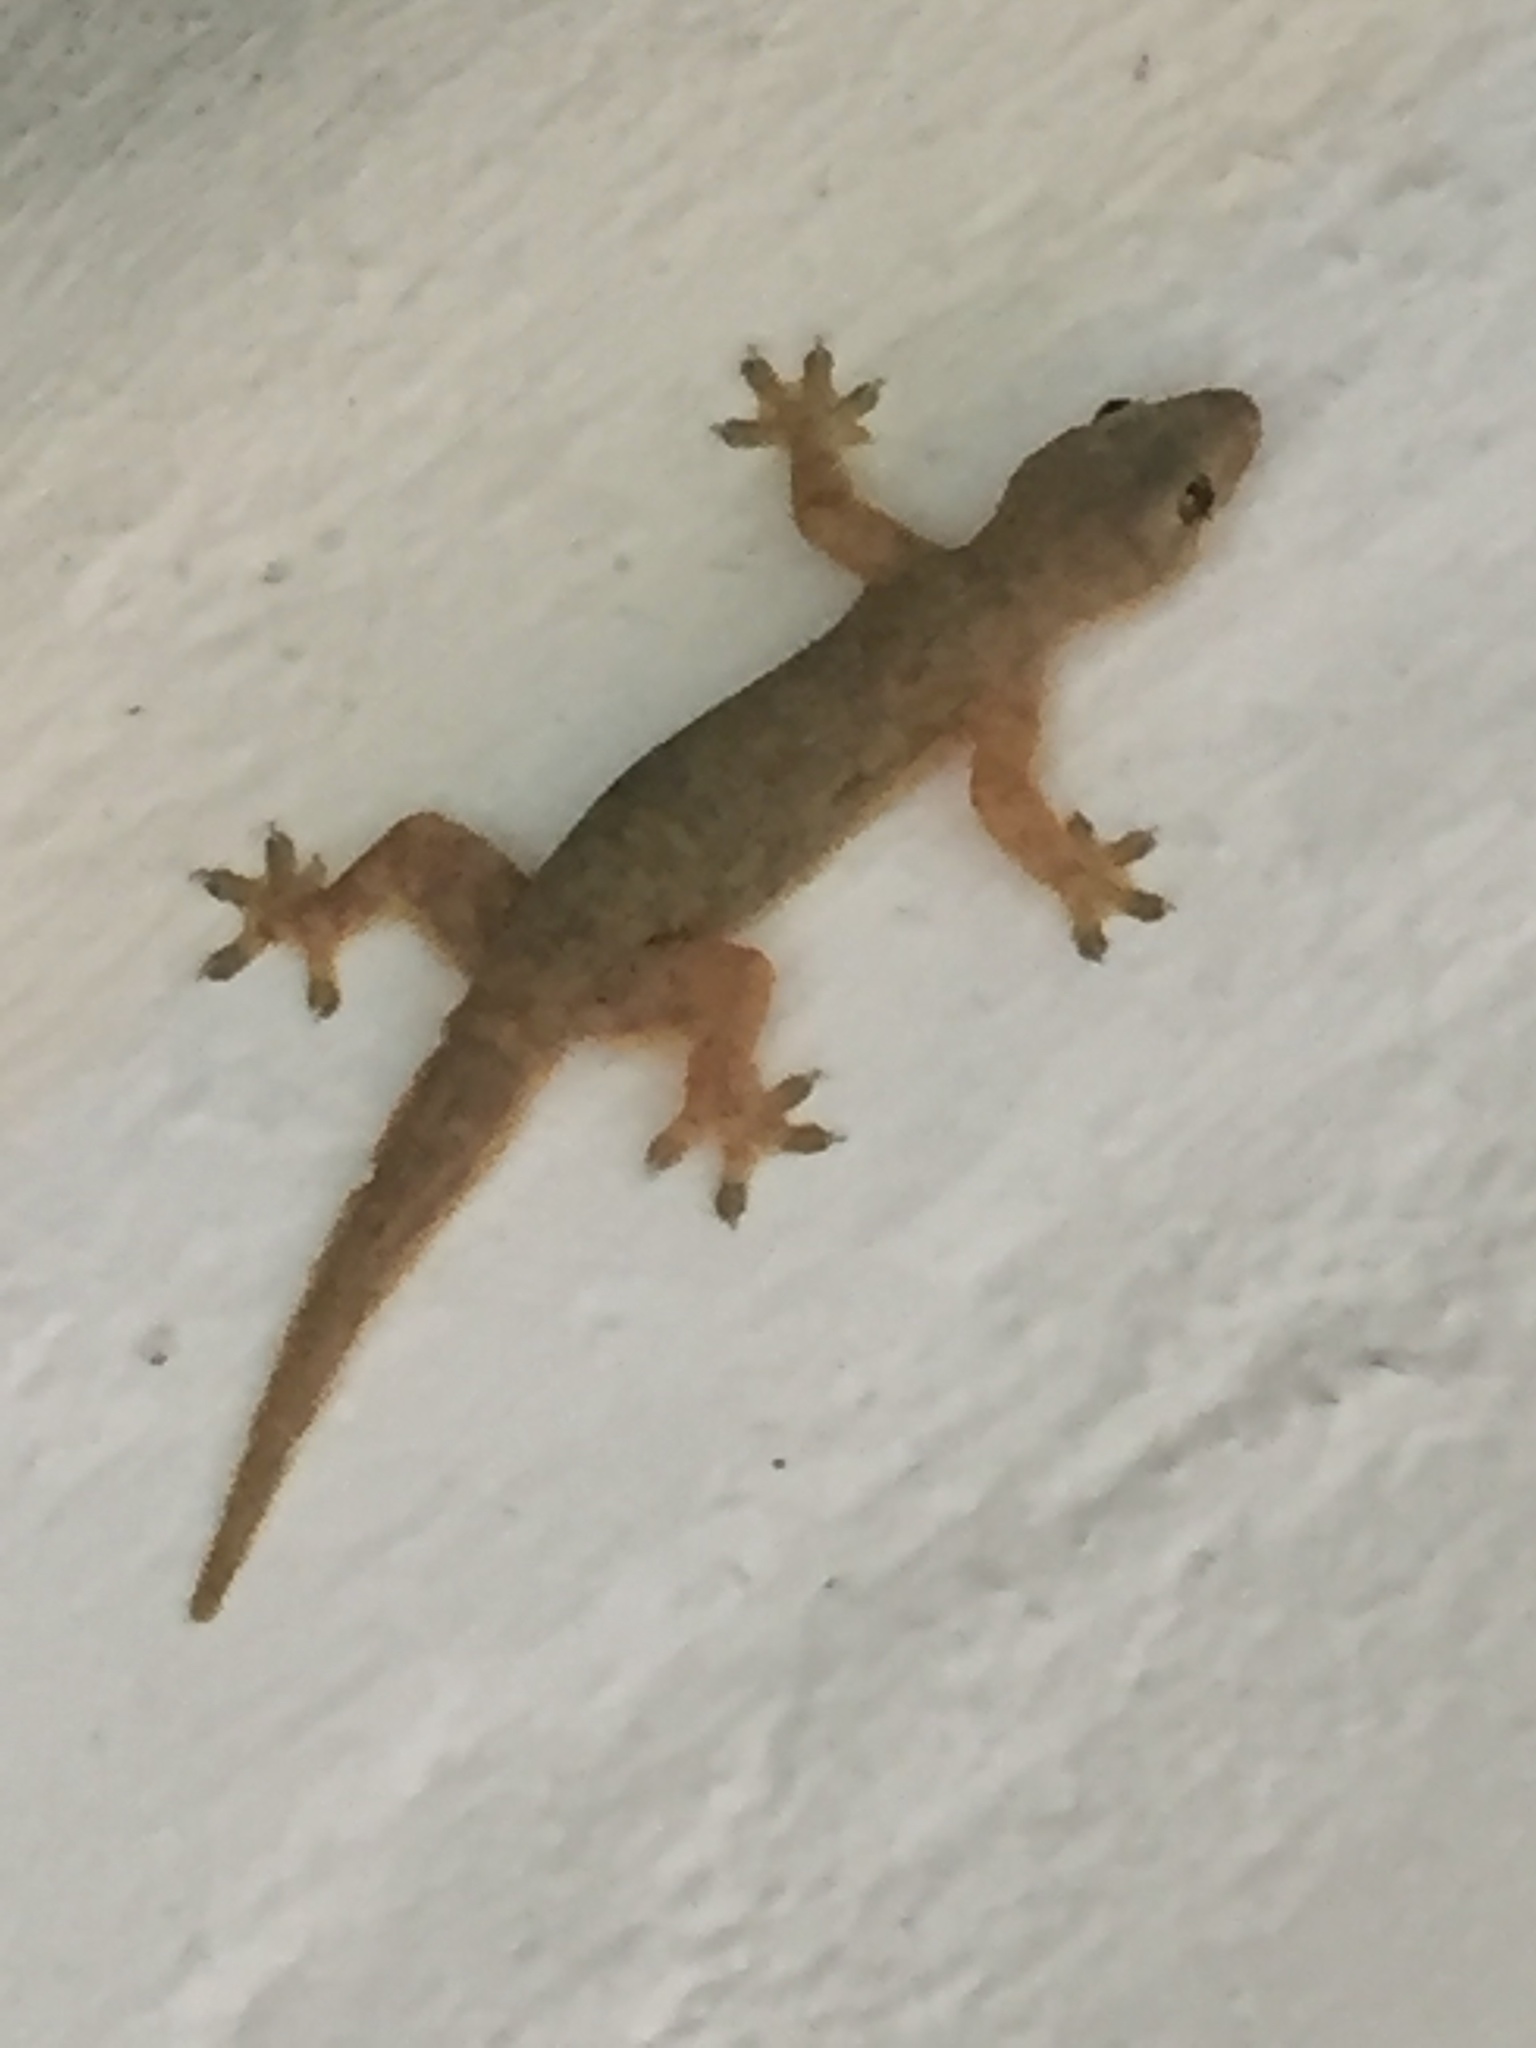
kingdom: Animalia
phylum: Chordata
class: Squamata
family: Gekkonidae
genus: Hemidactylus
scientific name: Hemidactylus platyurus
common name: Flat-tailed house gecko
